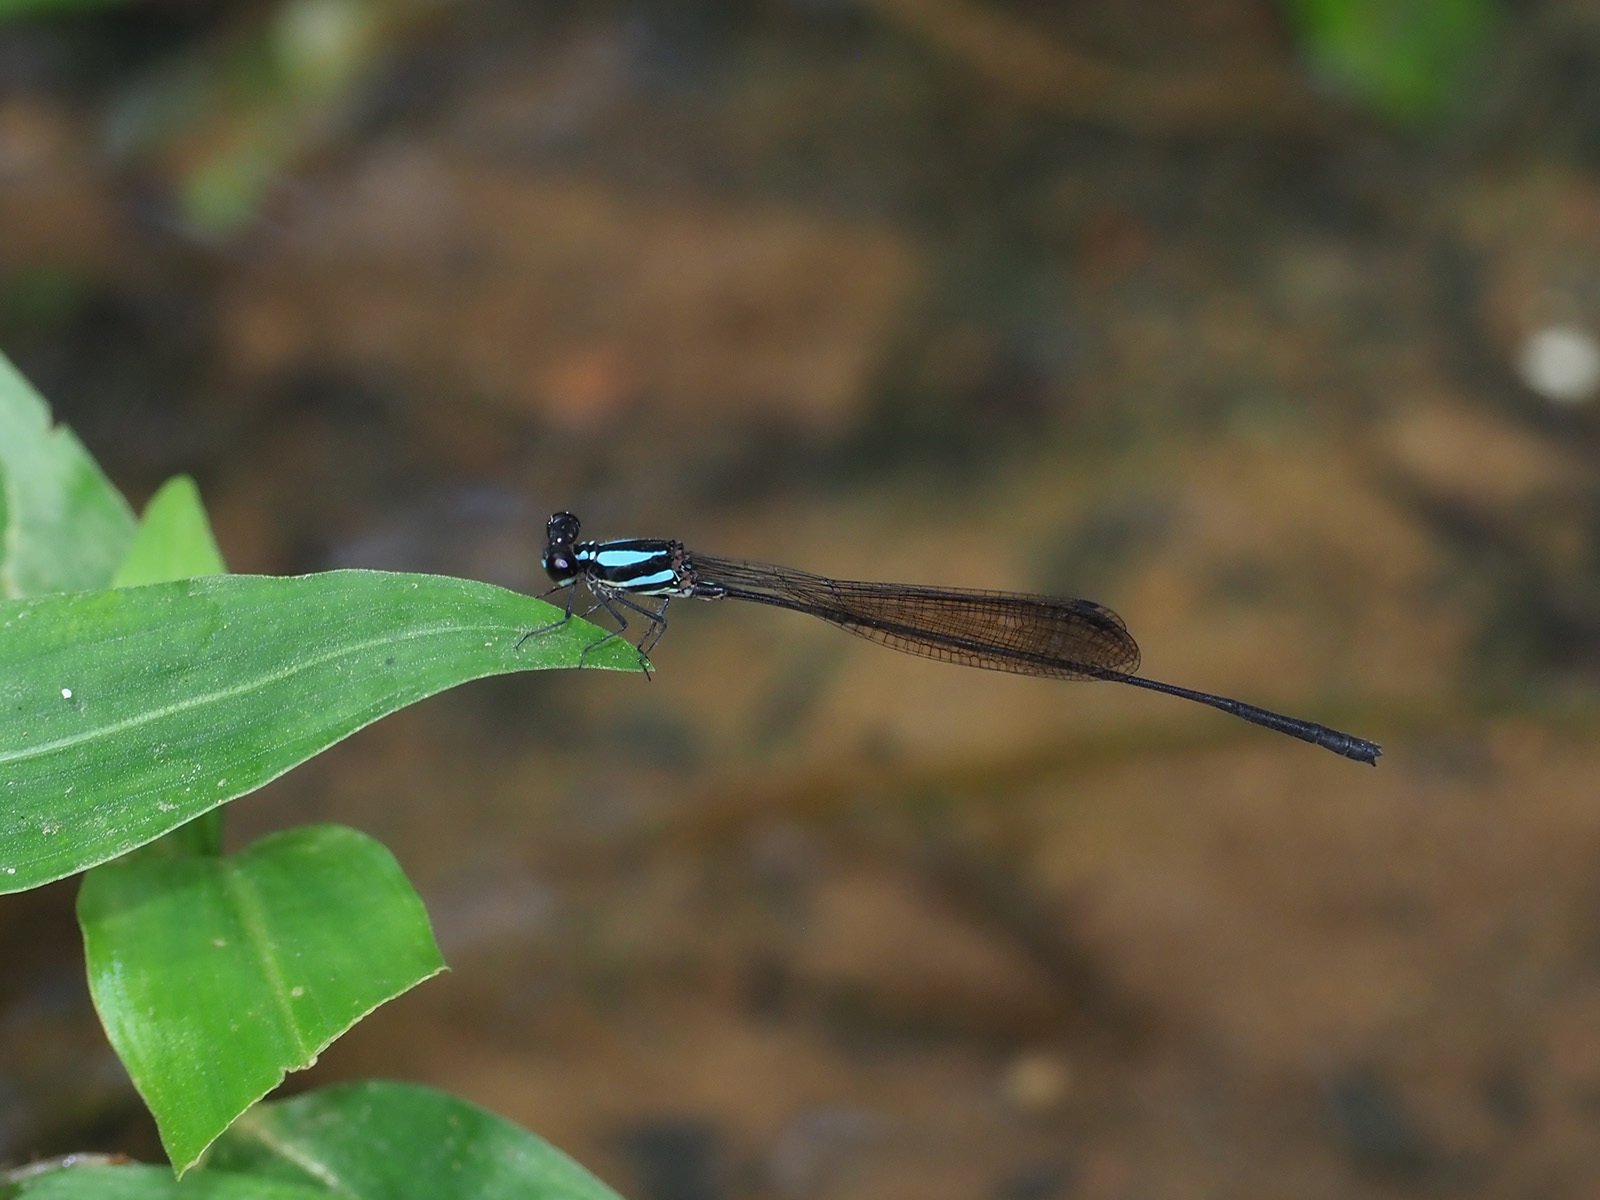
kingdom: Animalia
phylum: Arthropoda
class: Insecta
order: Odonata
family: Platycnemididae
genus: Prodasineura
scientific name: Prodasineura notostigma
